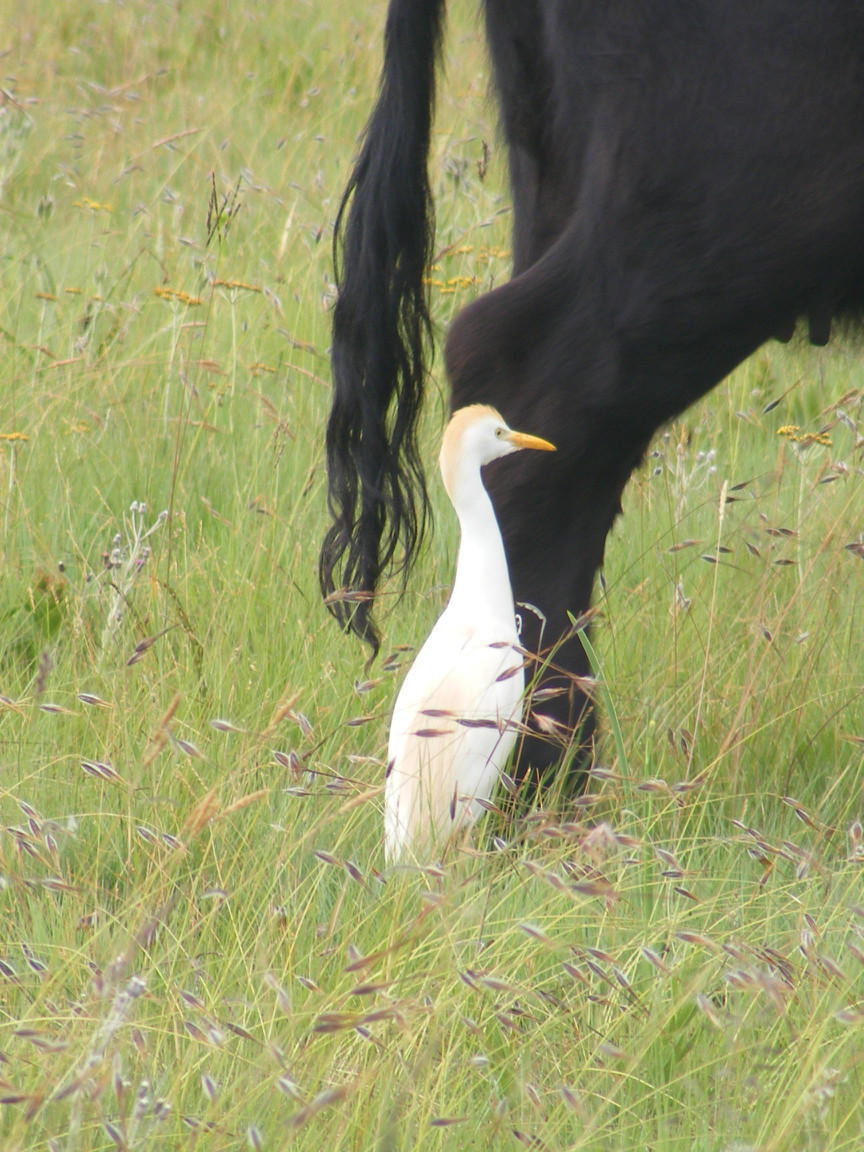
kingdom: Animalia
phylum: Chordata
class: Aves
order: Pelecaniformes
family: Ardeidae
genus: Bubulcus
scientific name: Bubulcus ibis
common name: Cattle egret
